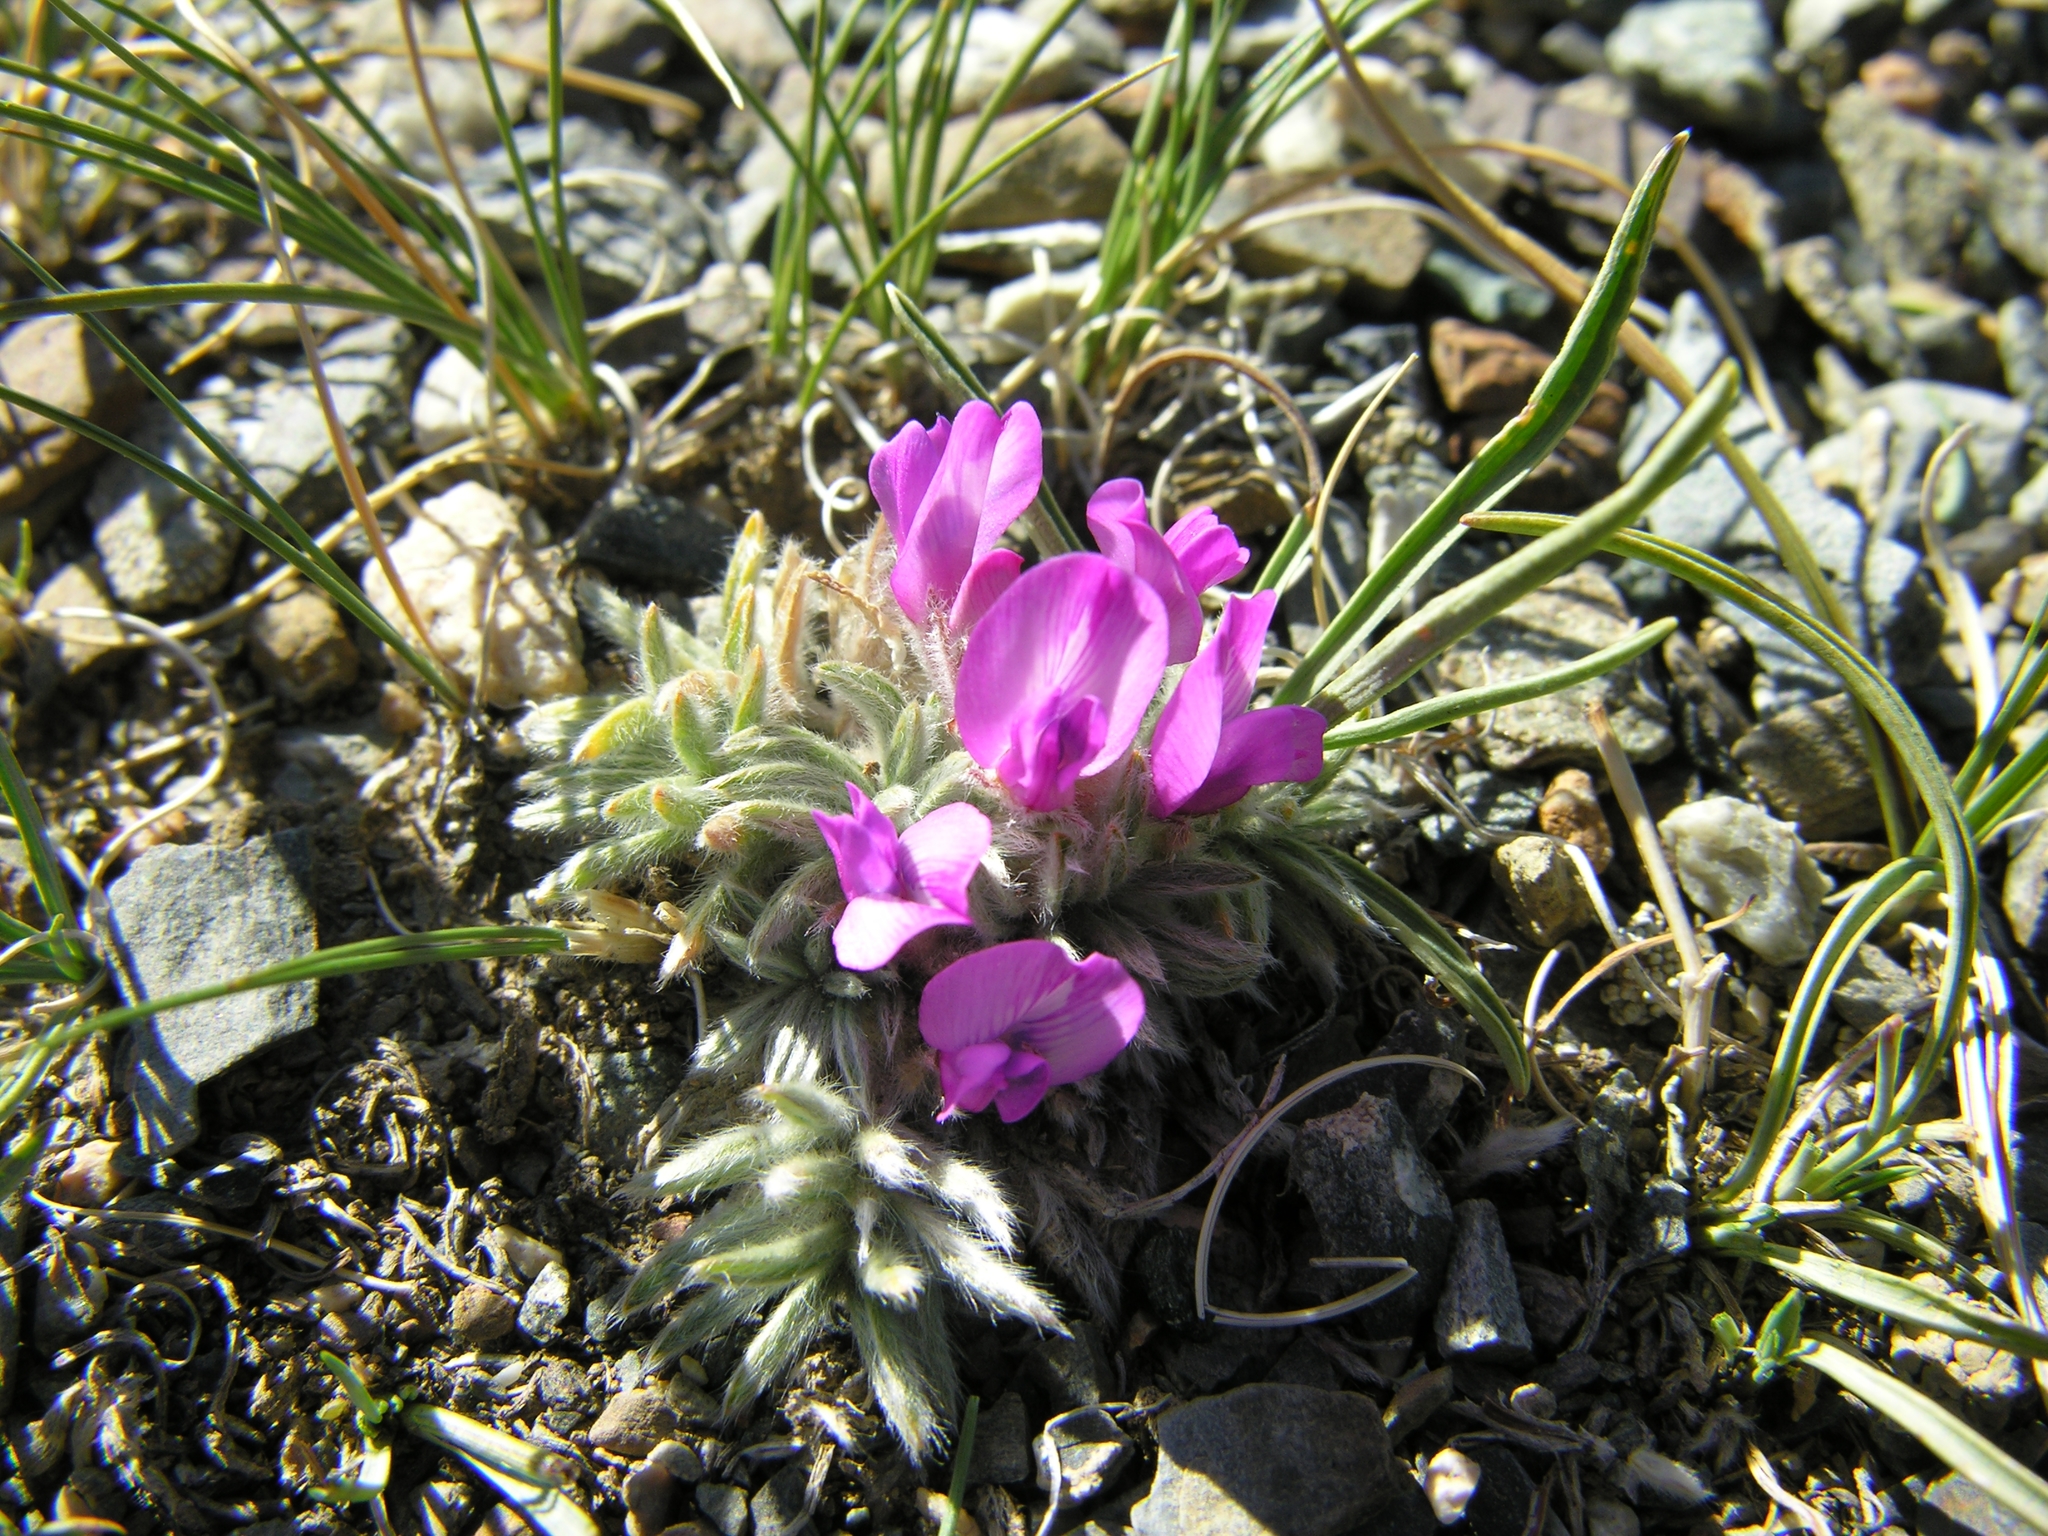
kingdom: Plantae
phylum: Tracheophyta
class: Magnoliopsida
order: Fabales
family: Fabaceae
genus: Oxytropis
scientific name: Oxytropis pumila
